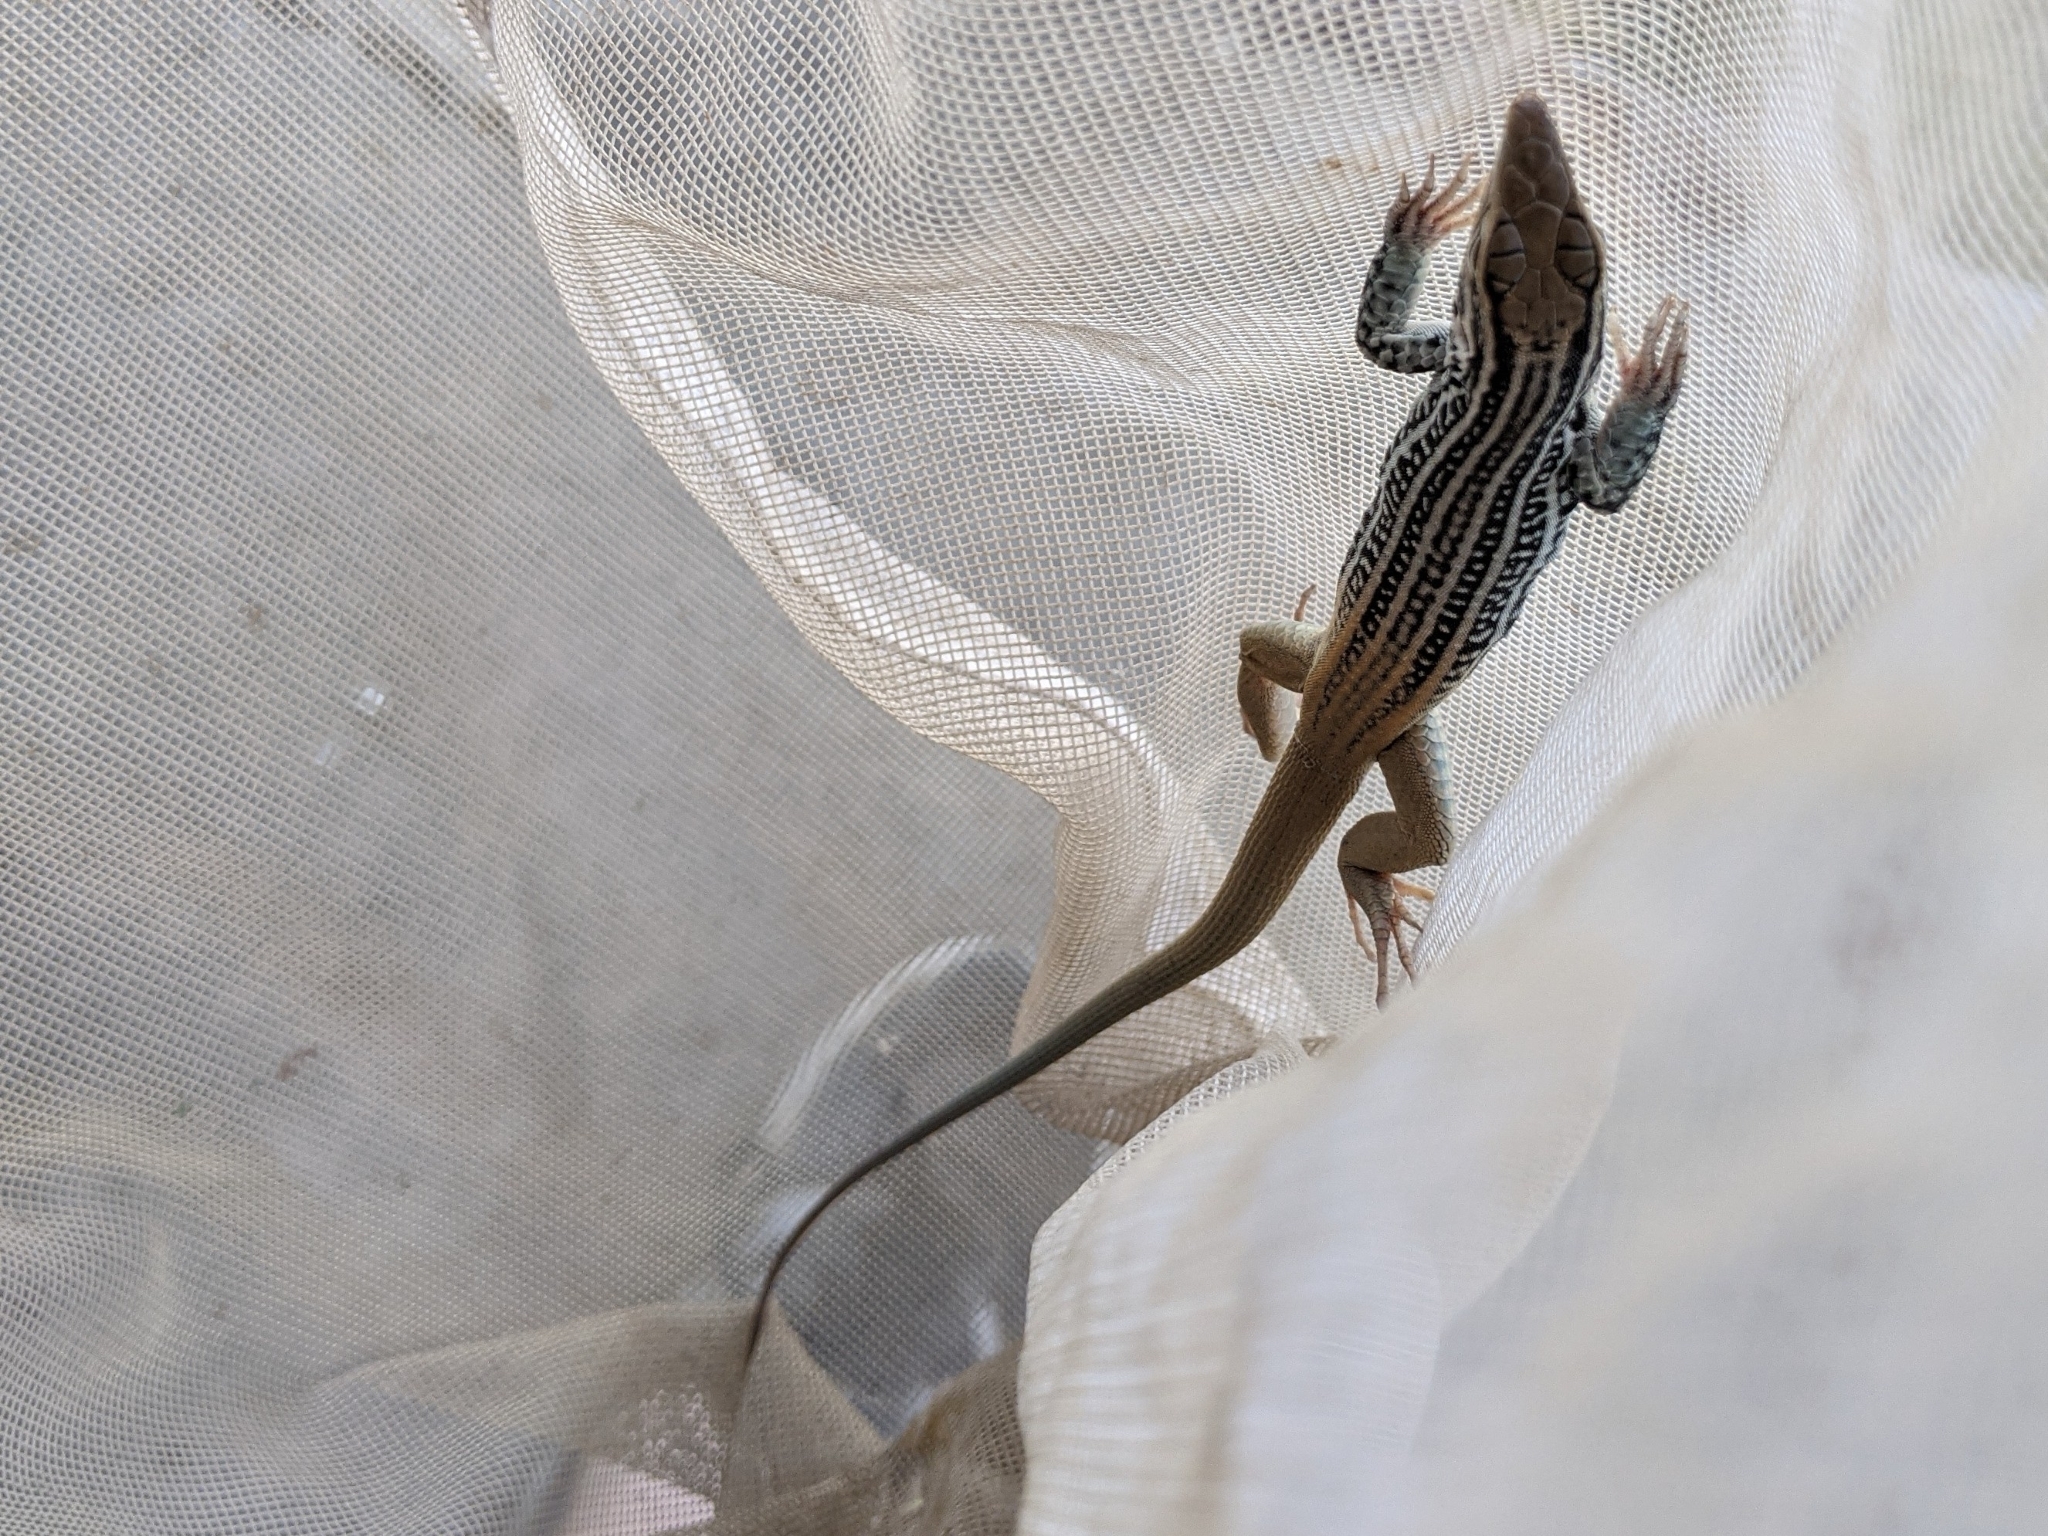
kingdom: Animalia
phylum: Chordata
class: Squamata
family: Teiidae
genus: Aspidoscelis
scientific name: Aspidoscelis scalaris
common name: Rusty-rumped whiptail
